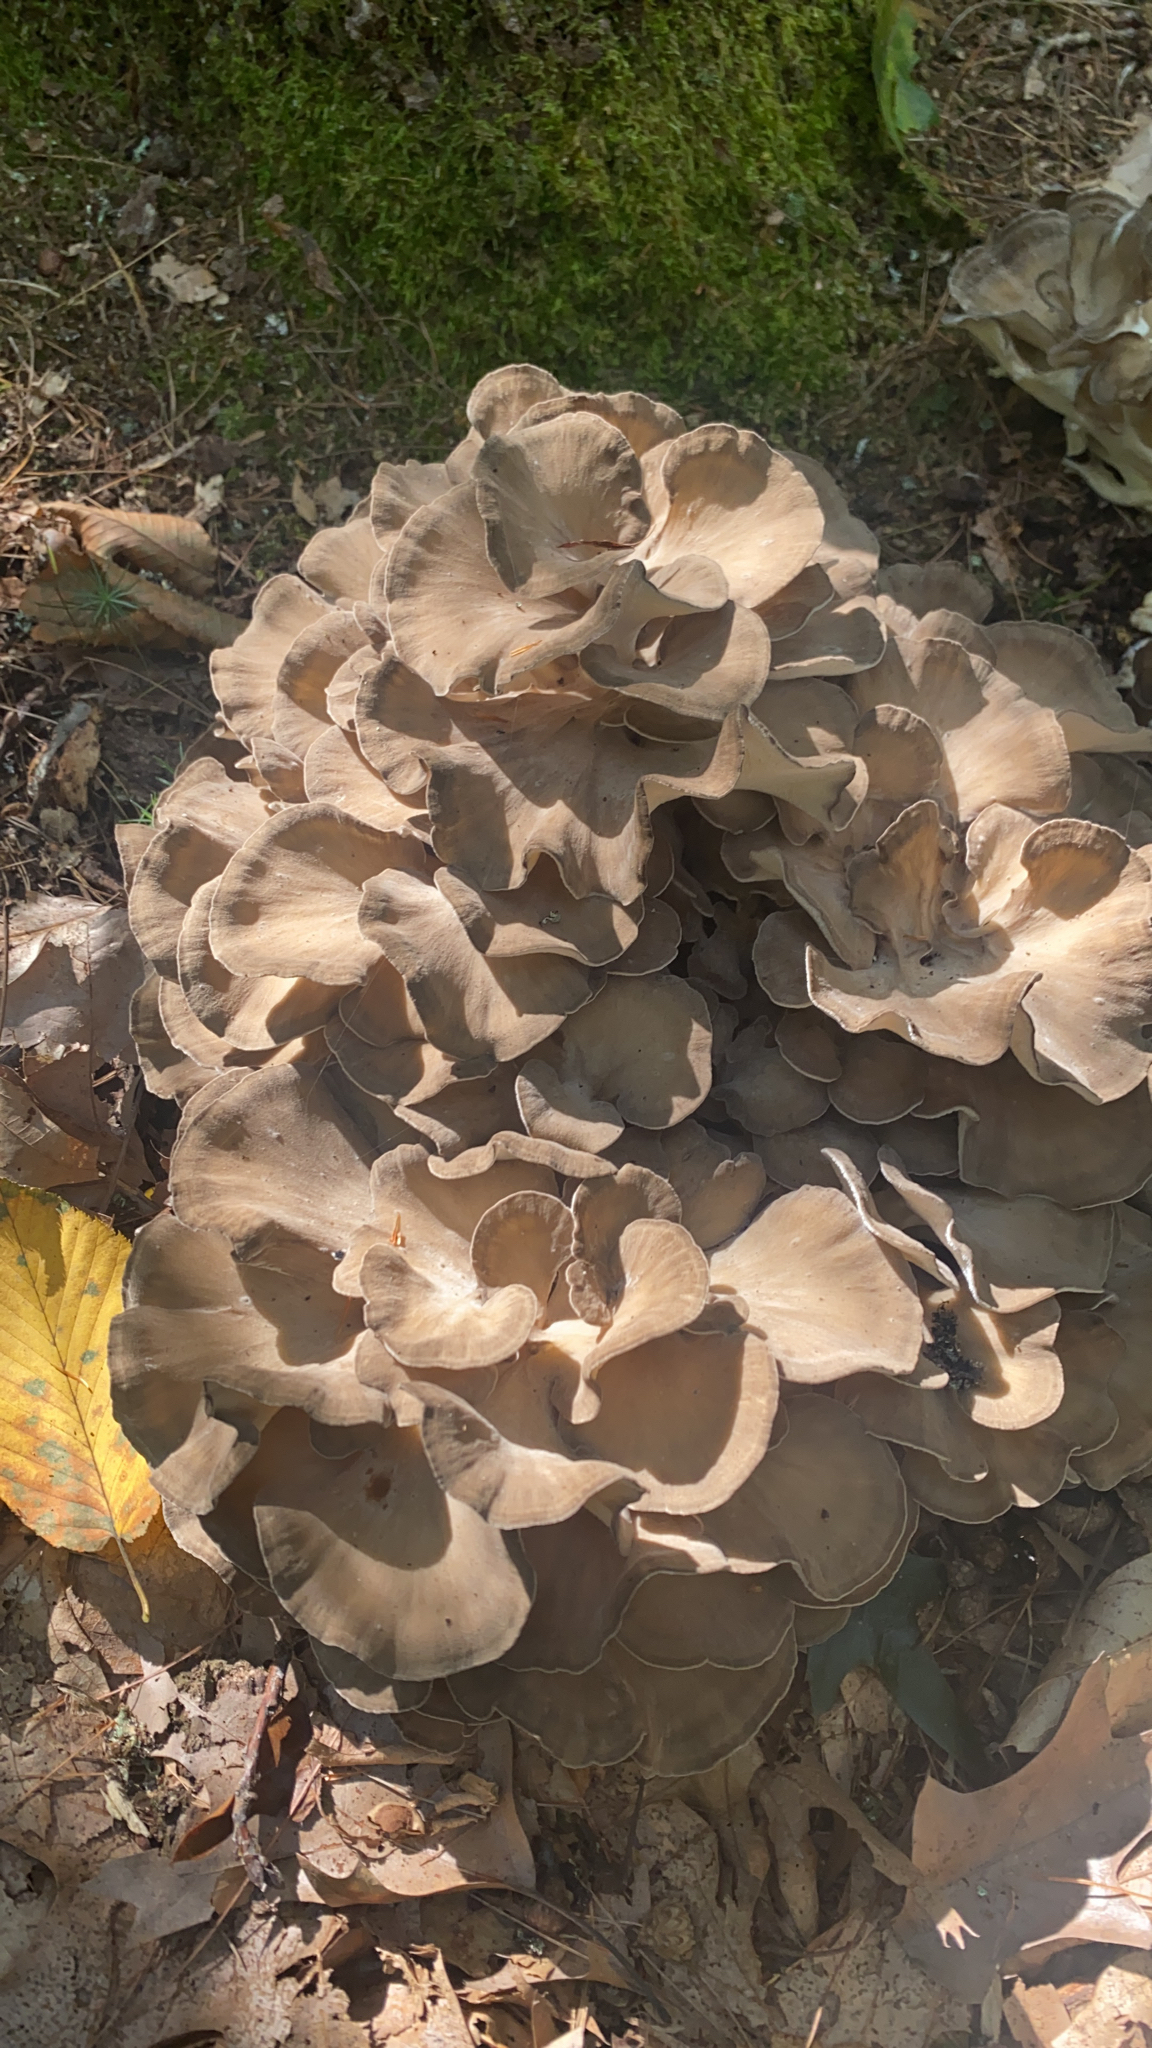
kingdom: Fungi
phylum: Basidiomycota
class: Agaricomycetes
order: Polyporales
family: Grifolaceae
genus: Grifola
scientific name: Grifola frondosa
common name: Hen of the woods
